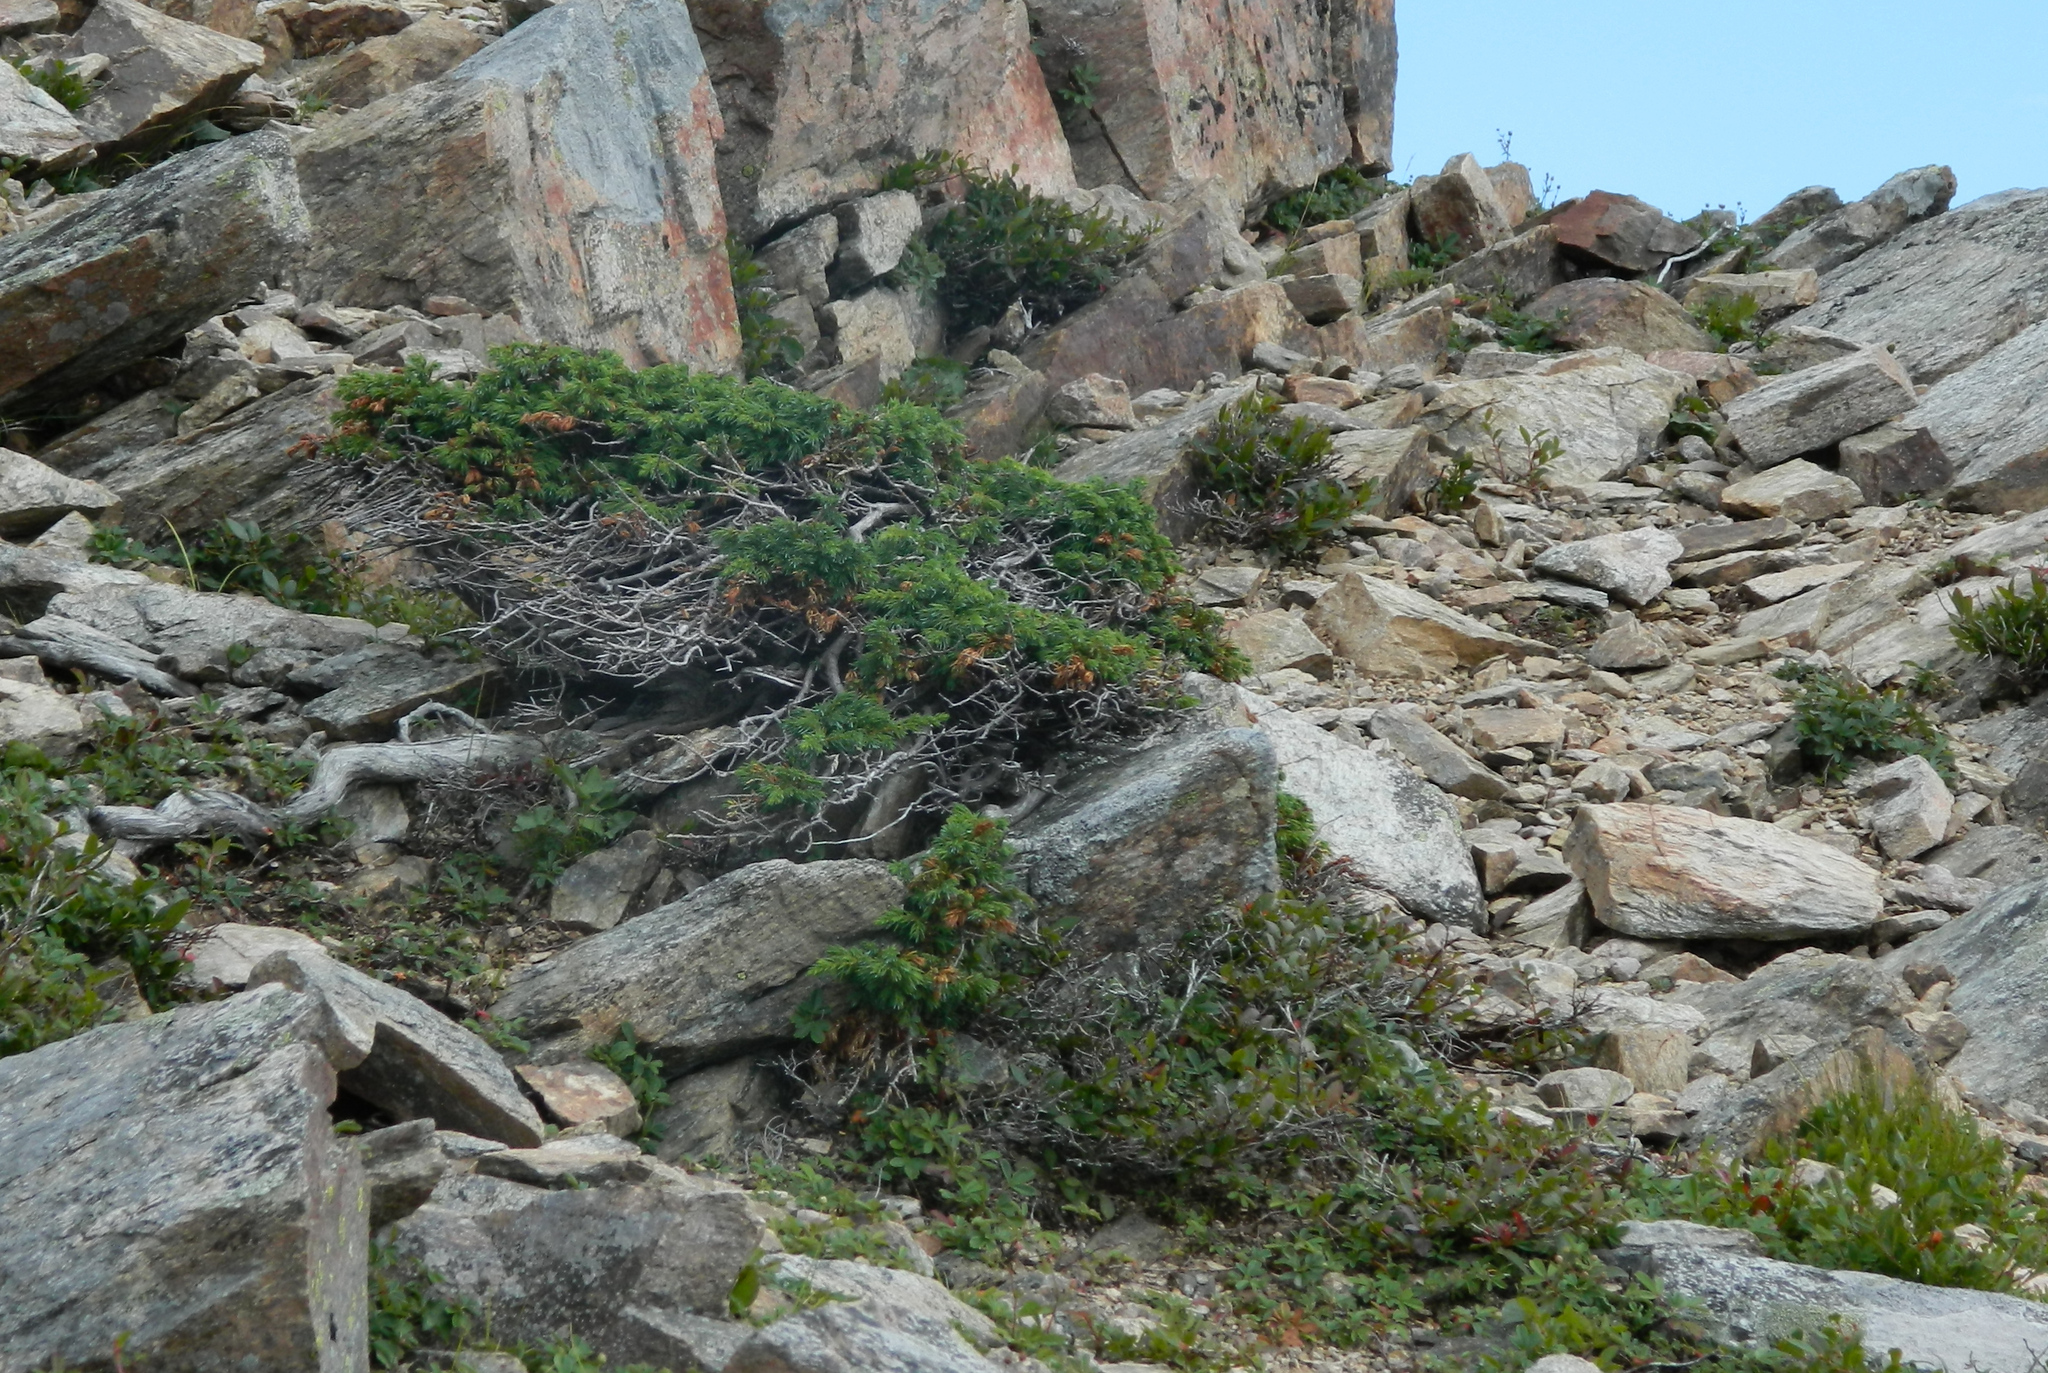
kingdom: Plantae
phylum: Tracheophyta
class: Pinopsida
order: Pinales
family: Cupressaceae
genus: Juniperus
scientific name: Juniperus communis
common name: Common juniper
